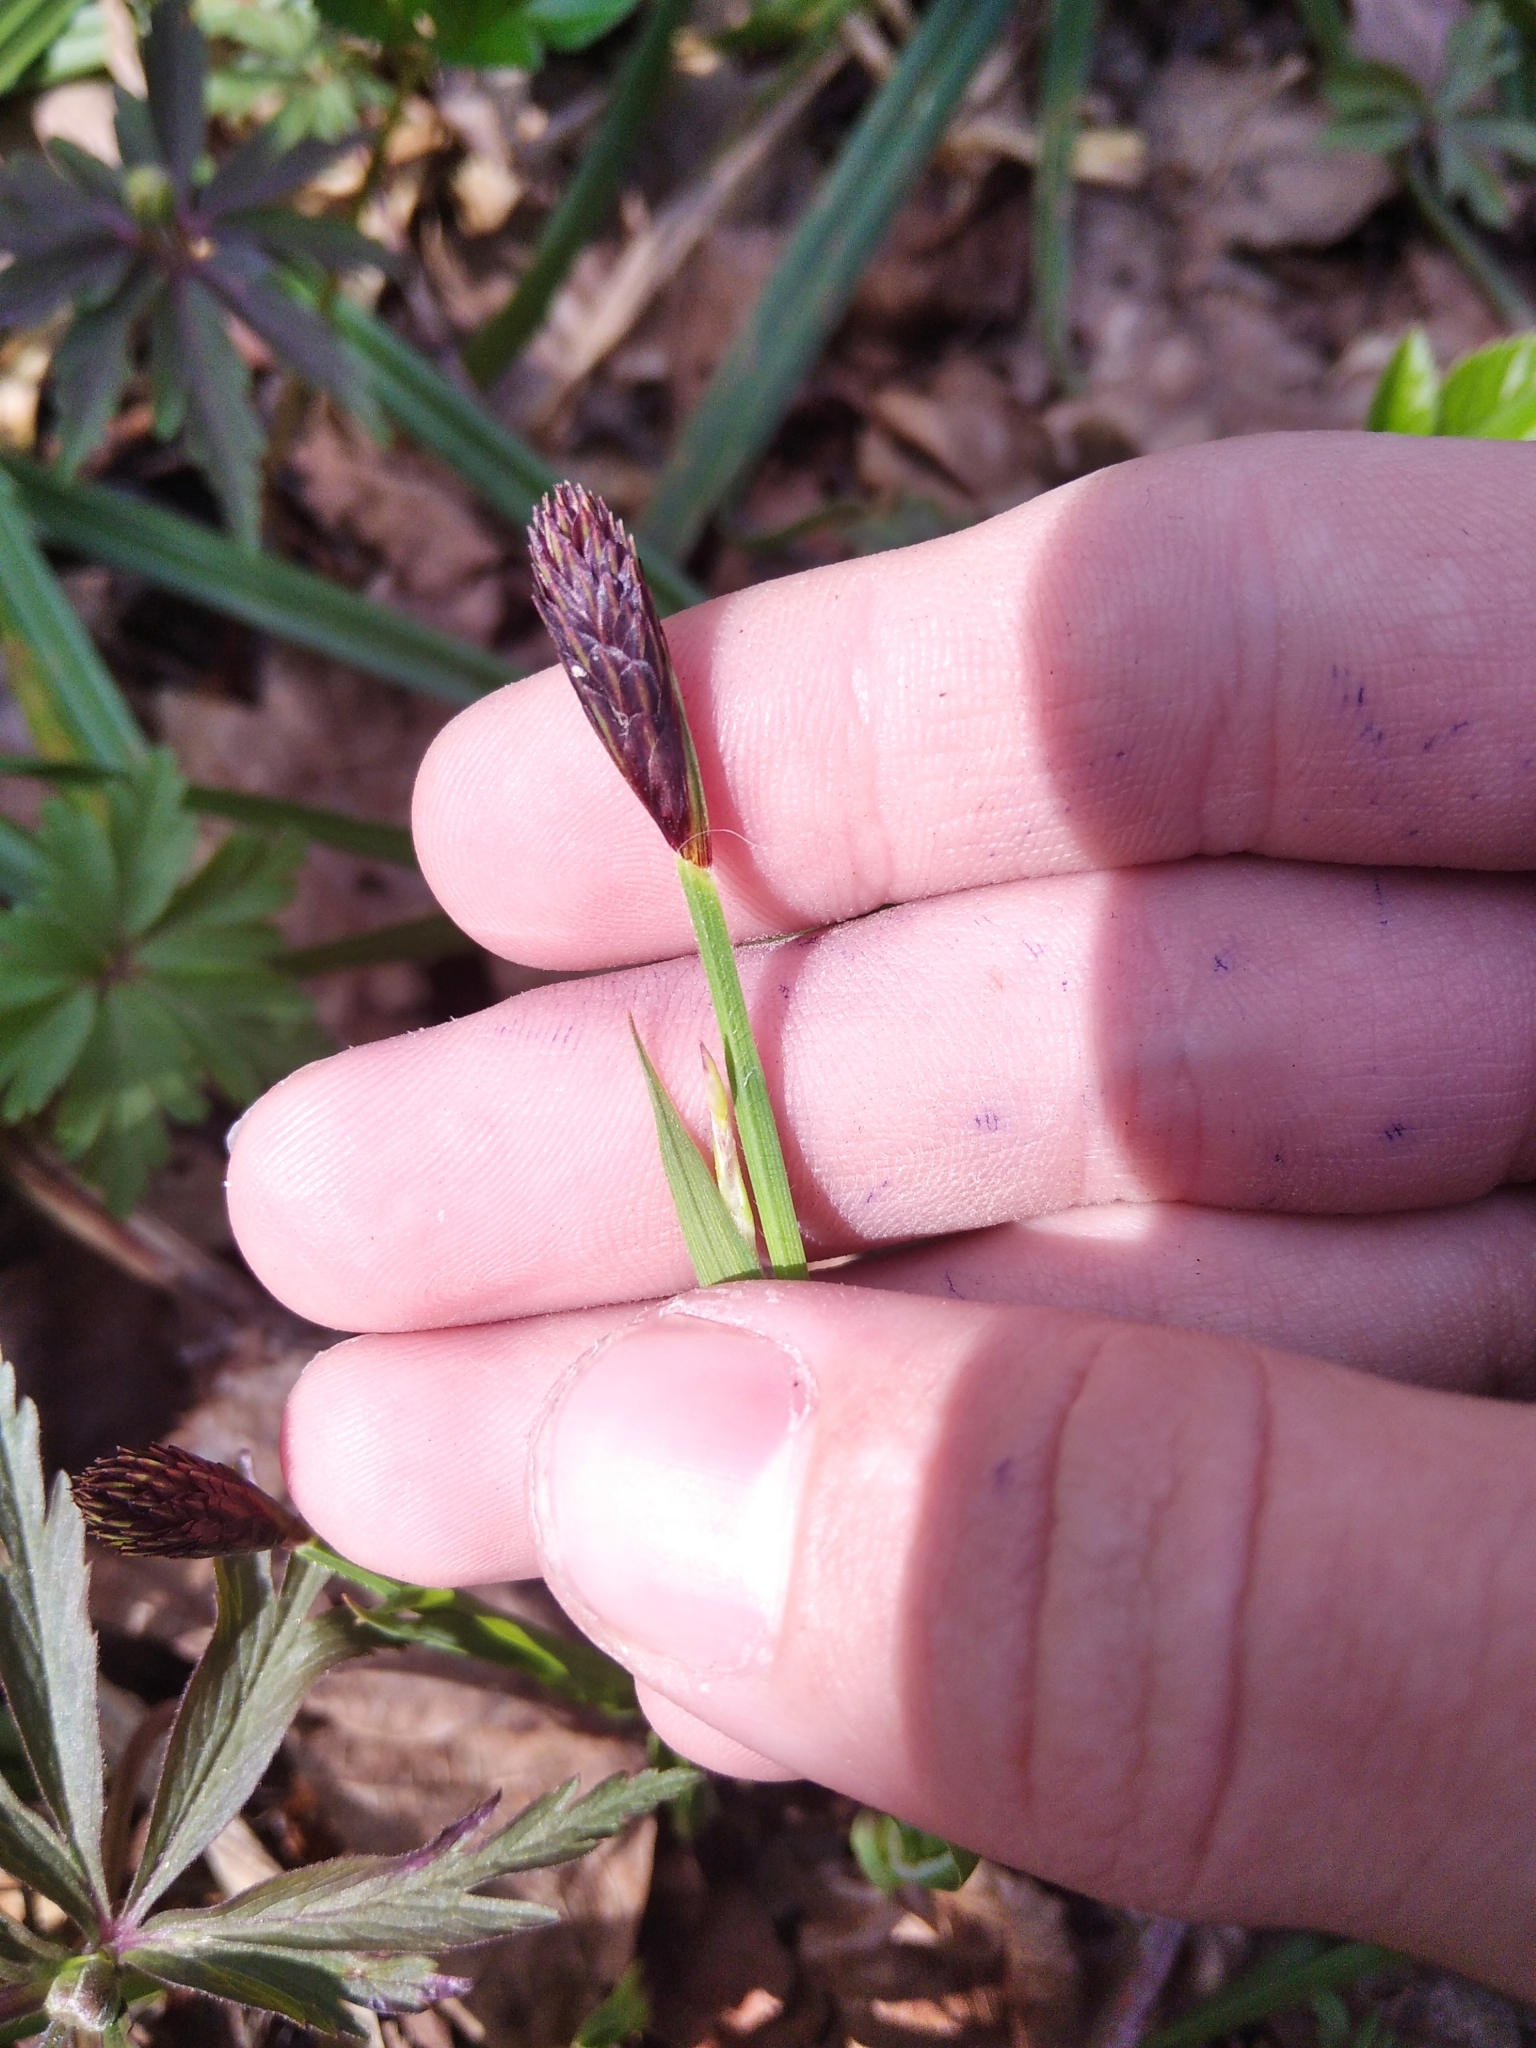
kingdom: Plantae
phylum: Tracheophyta
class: Liliopsida
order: Poales
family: Cyperaceae
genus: Carex
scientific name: Carex pilosa
